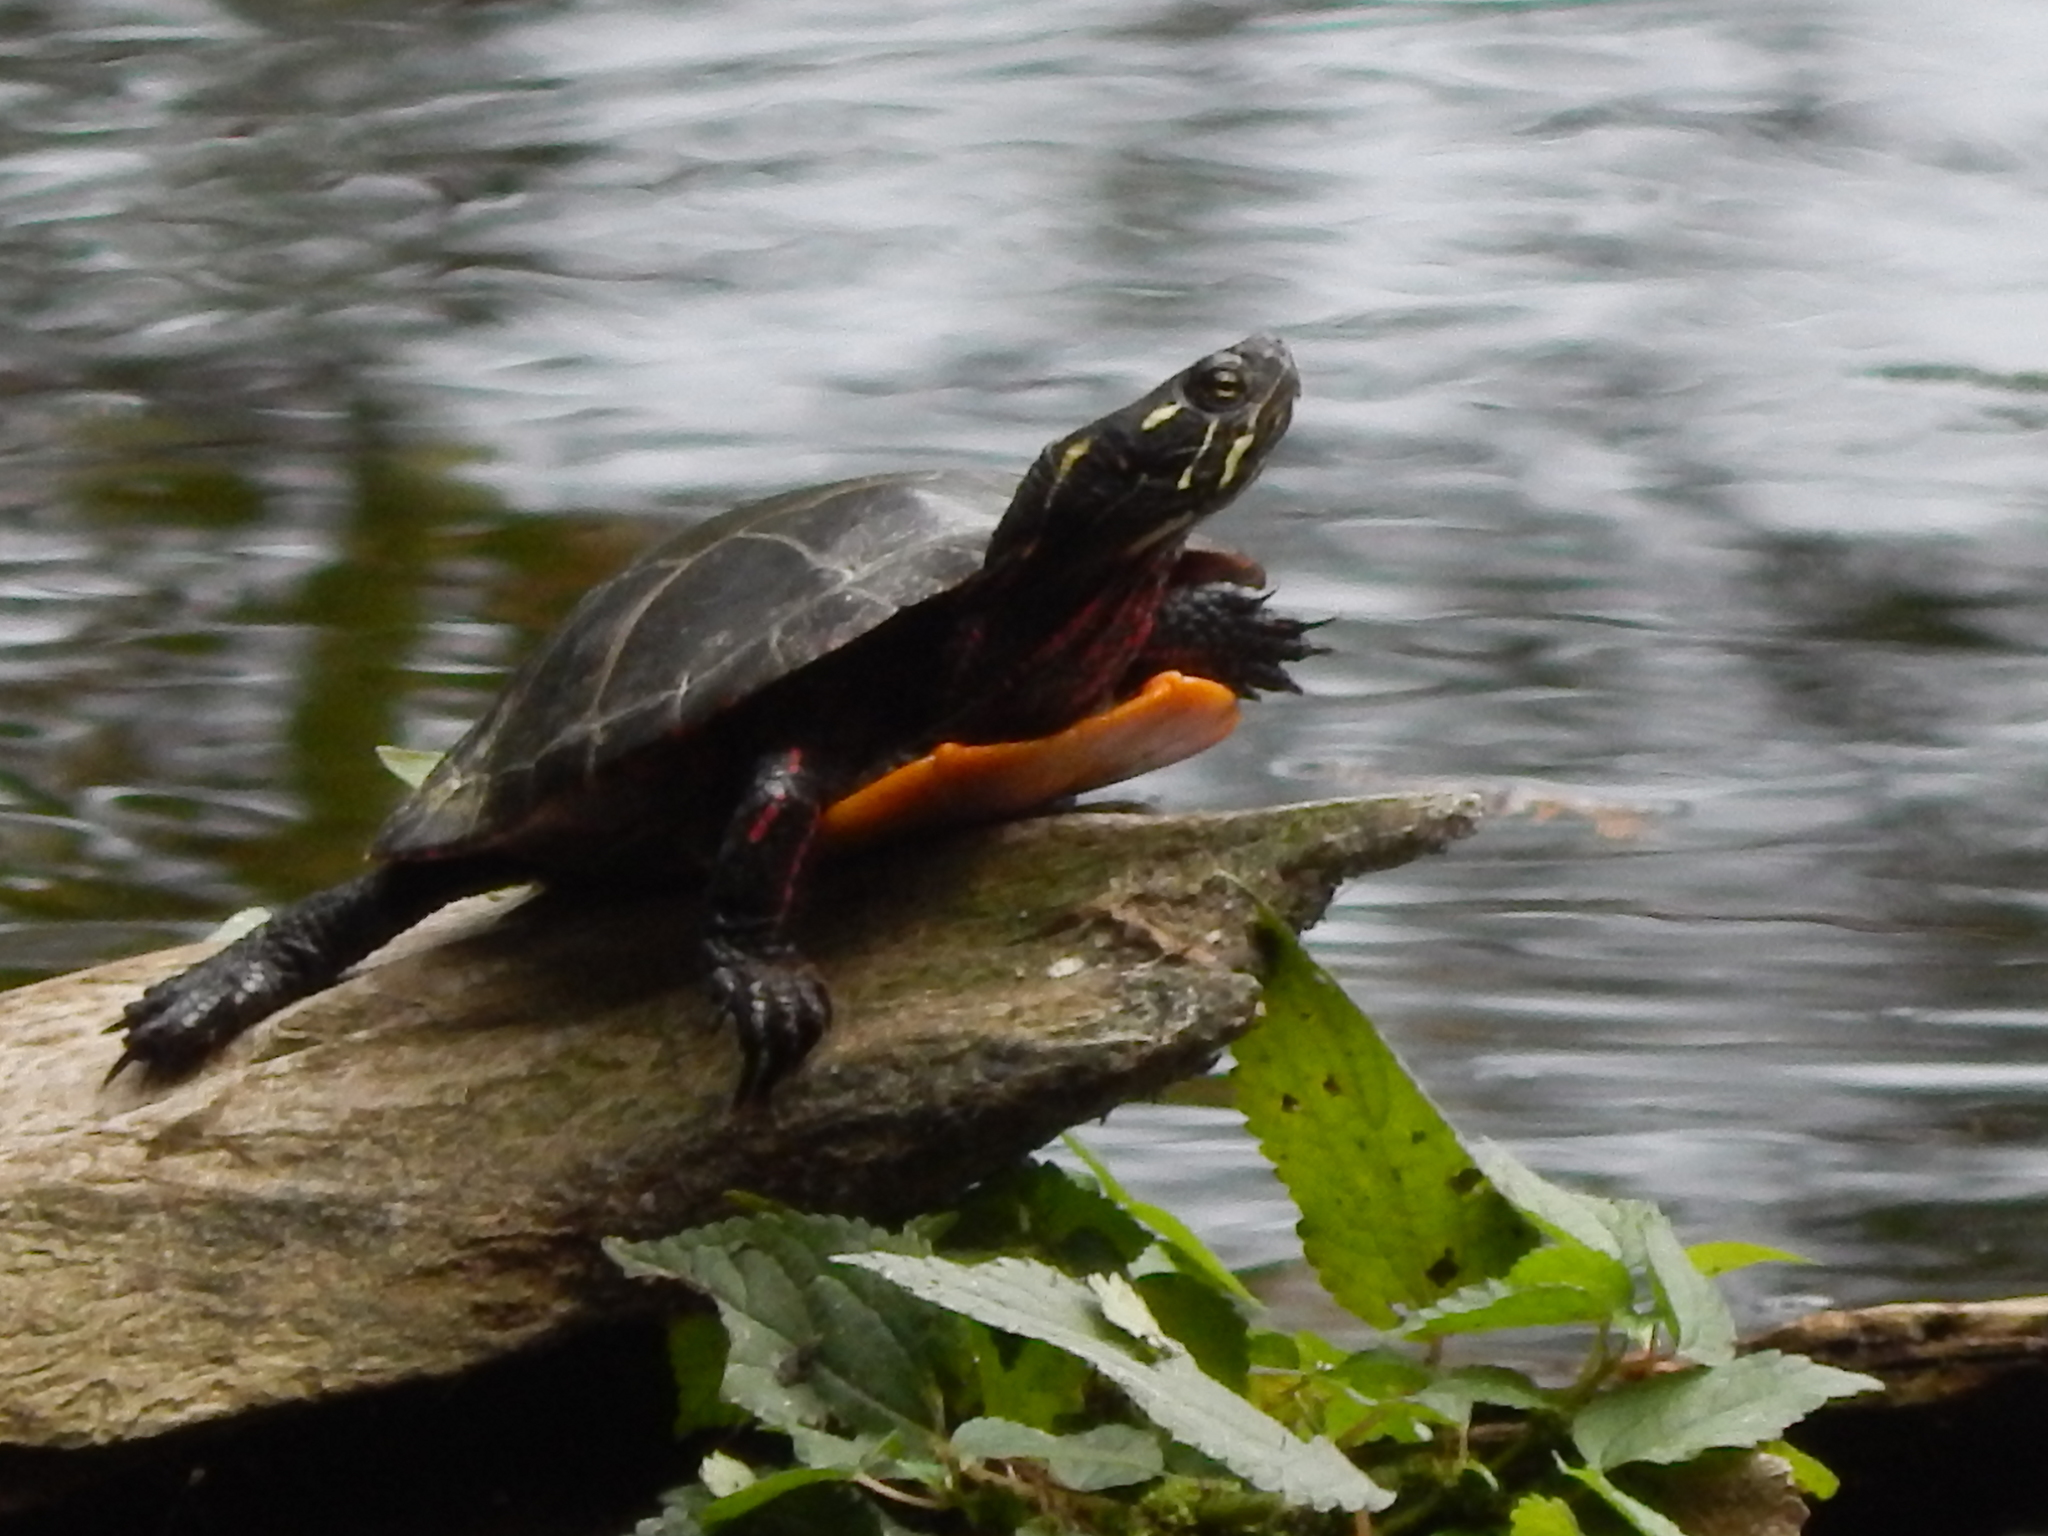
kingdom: Animalia
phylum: Chordata
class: Testudines
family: Emydidae
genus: Chrysemys
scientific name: Chrysemys picta
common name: Painted turtle
